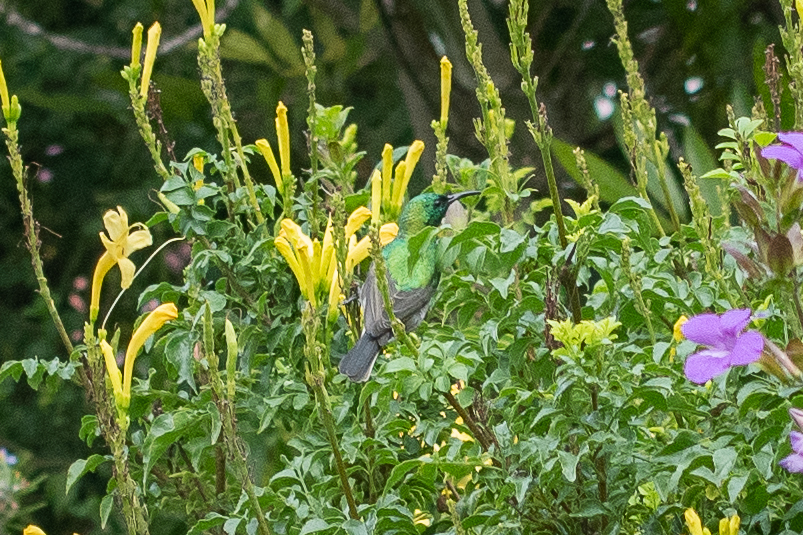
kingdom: Animalia
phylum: Chordata
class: Aves
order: Passeriformes
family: Nectariniidae
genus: Cinnyris
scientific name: Cinnyris chalybeus
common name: Southern double-collared sunbird
